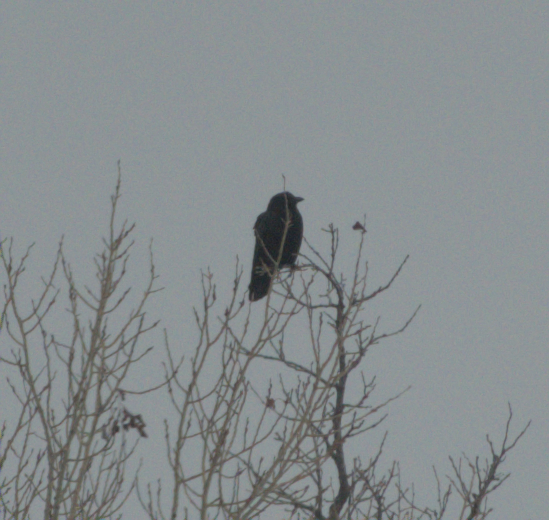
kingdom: Animalia
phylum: Chordata
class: Aves
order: Passeriformes
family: Corvidae
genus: Corvus
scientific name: Corvus corax
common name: Common raven
